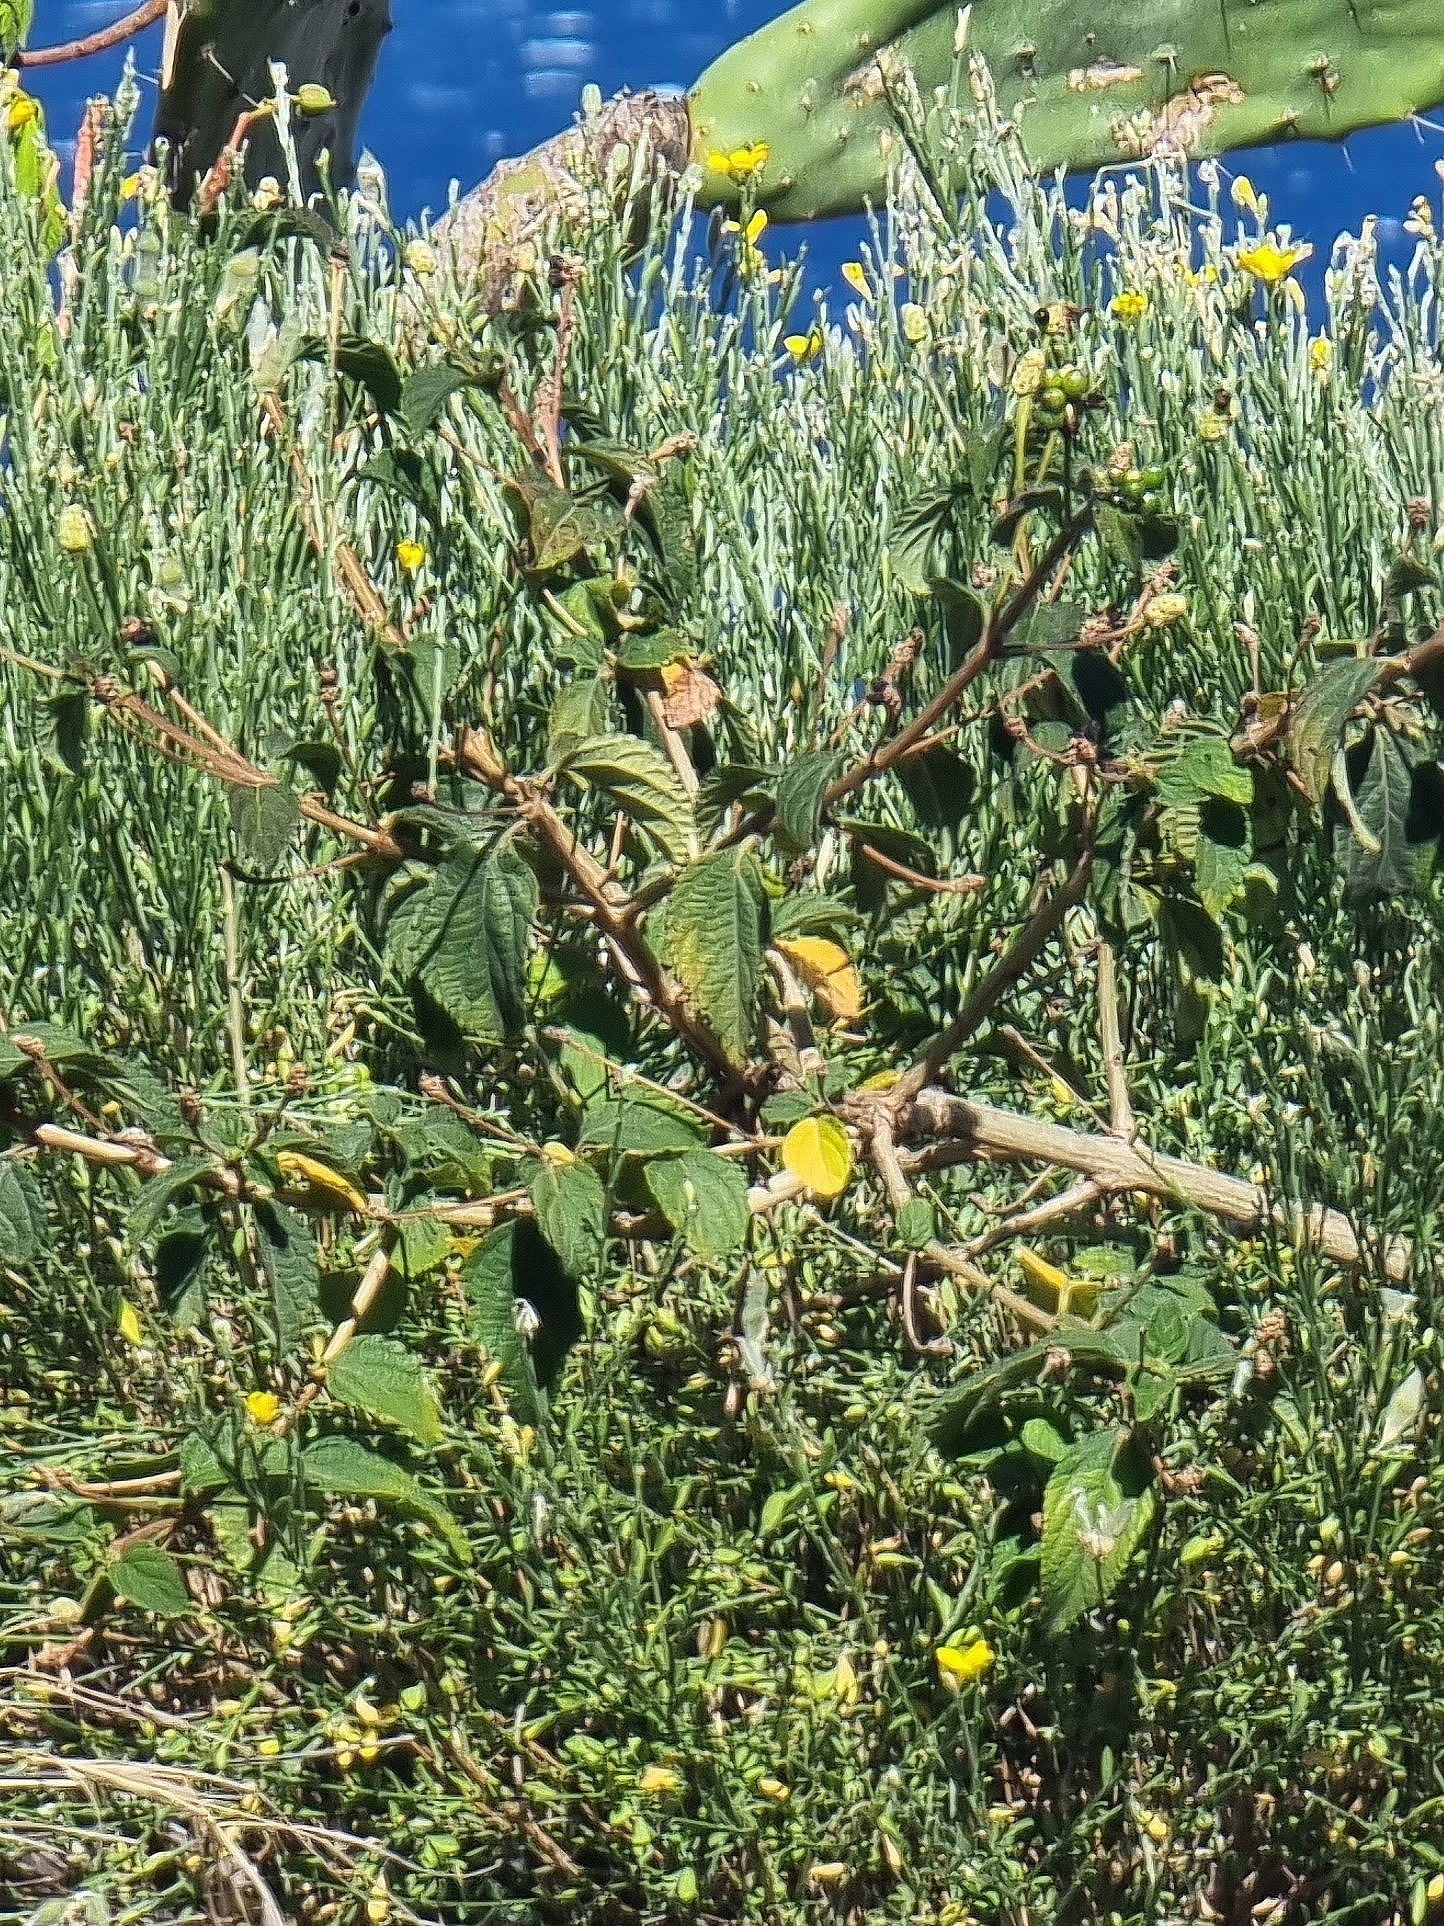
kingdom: Plantae
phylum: Tracheophyta
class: Magnoliopsida
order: Lamiales
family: Verbenaceae
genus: Lantana
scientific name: Lantana camara
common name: Lantana
